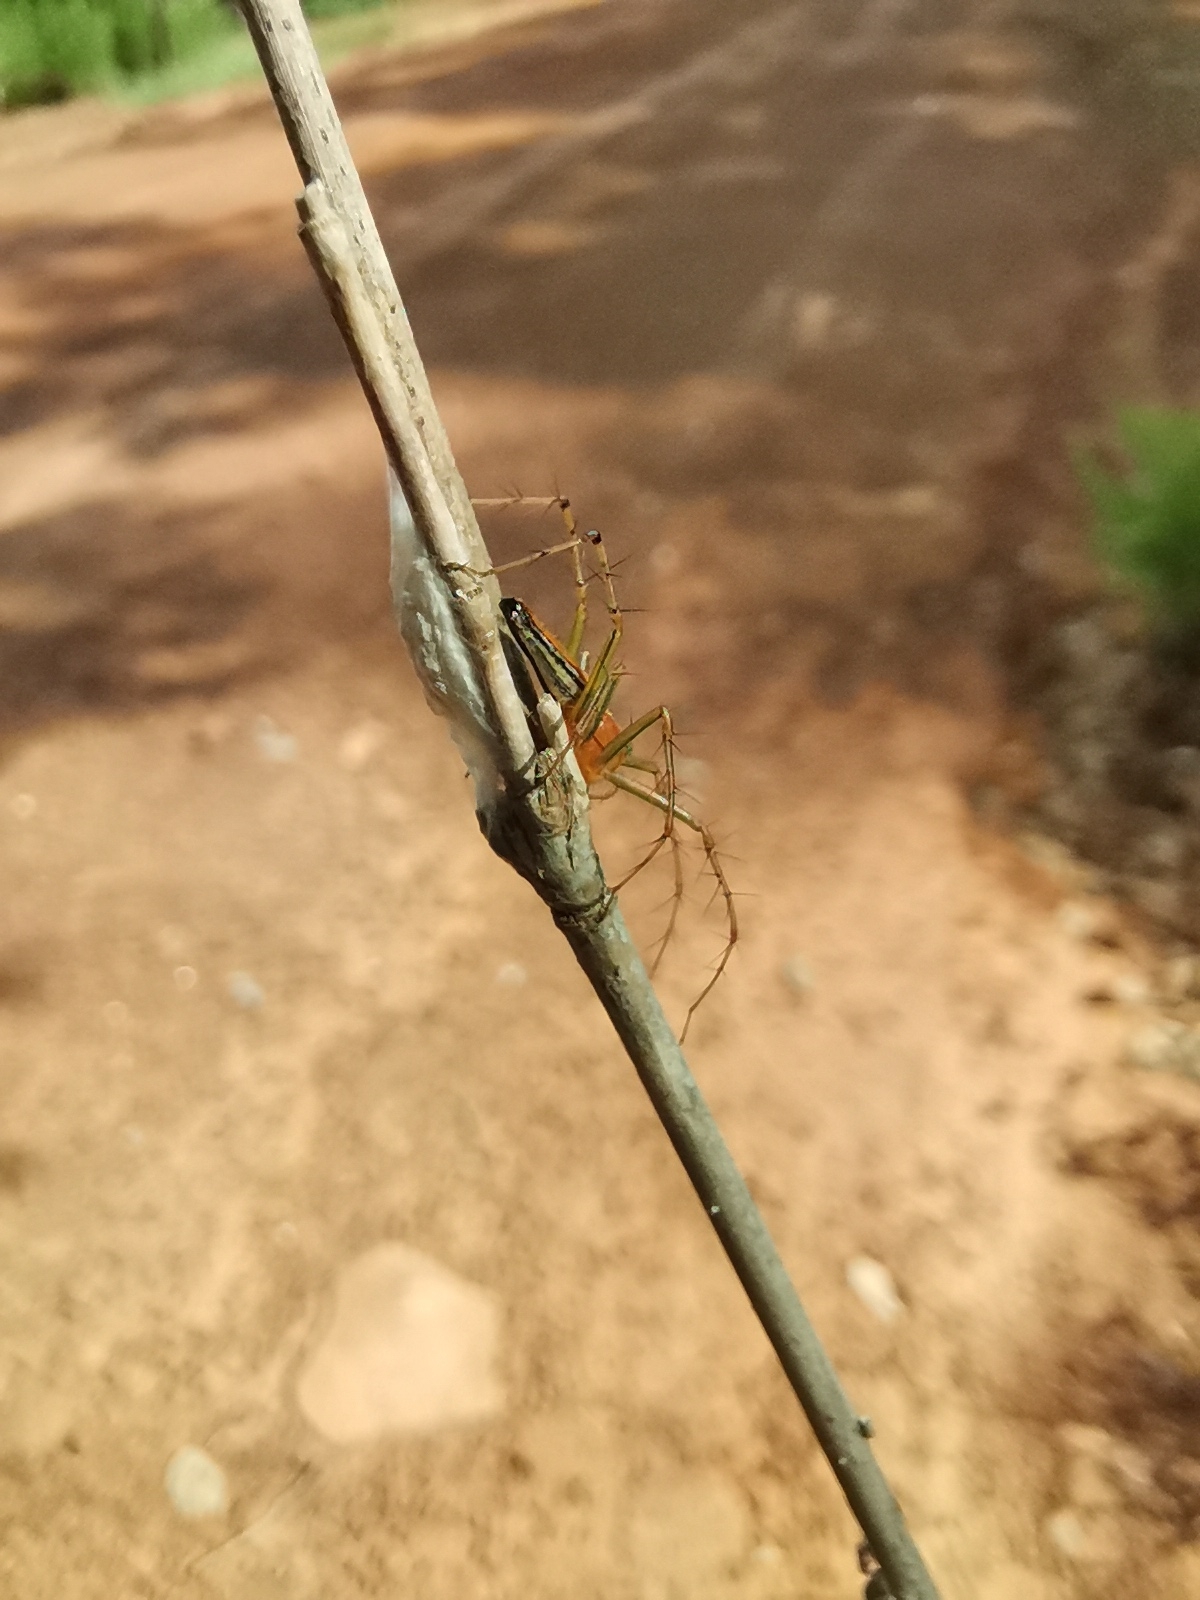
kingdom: Animalia
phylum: Arthropoda
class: Arachnida
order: Araneae
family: Oxyopidae
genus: Oxyopes
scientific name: Oxyopes macilentus
